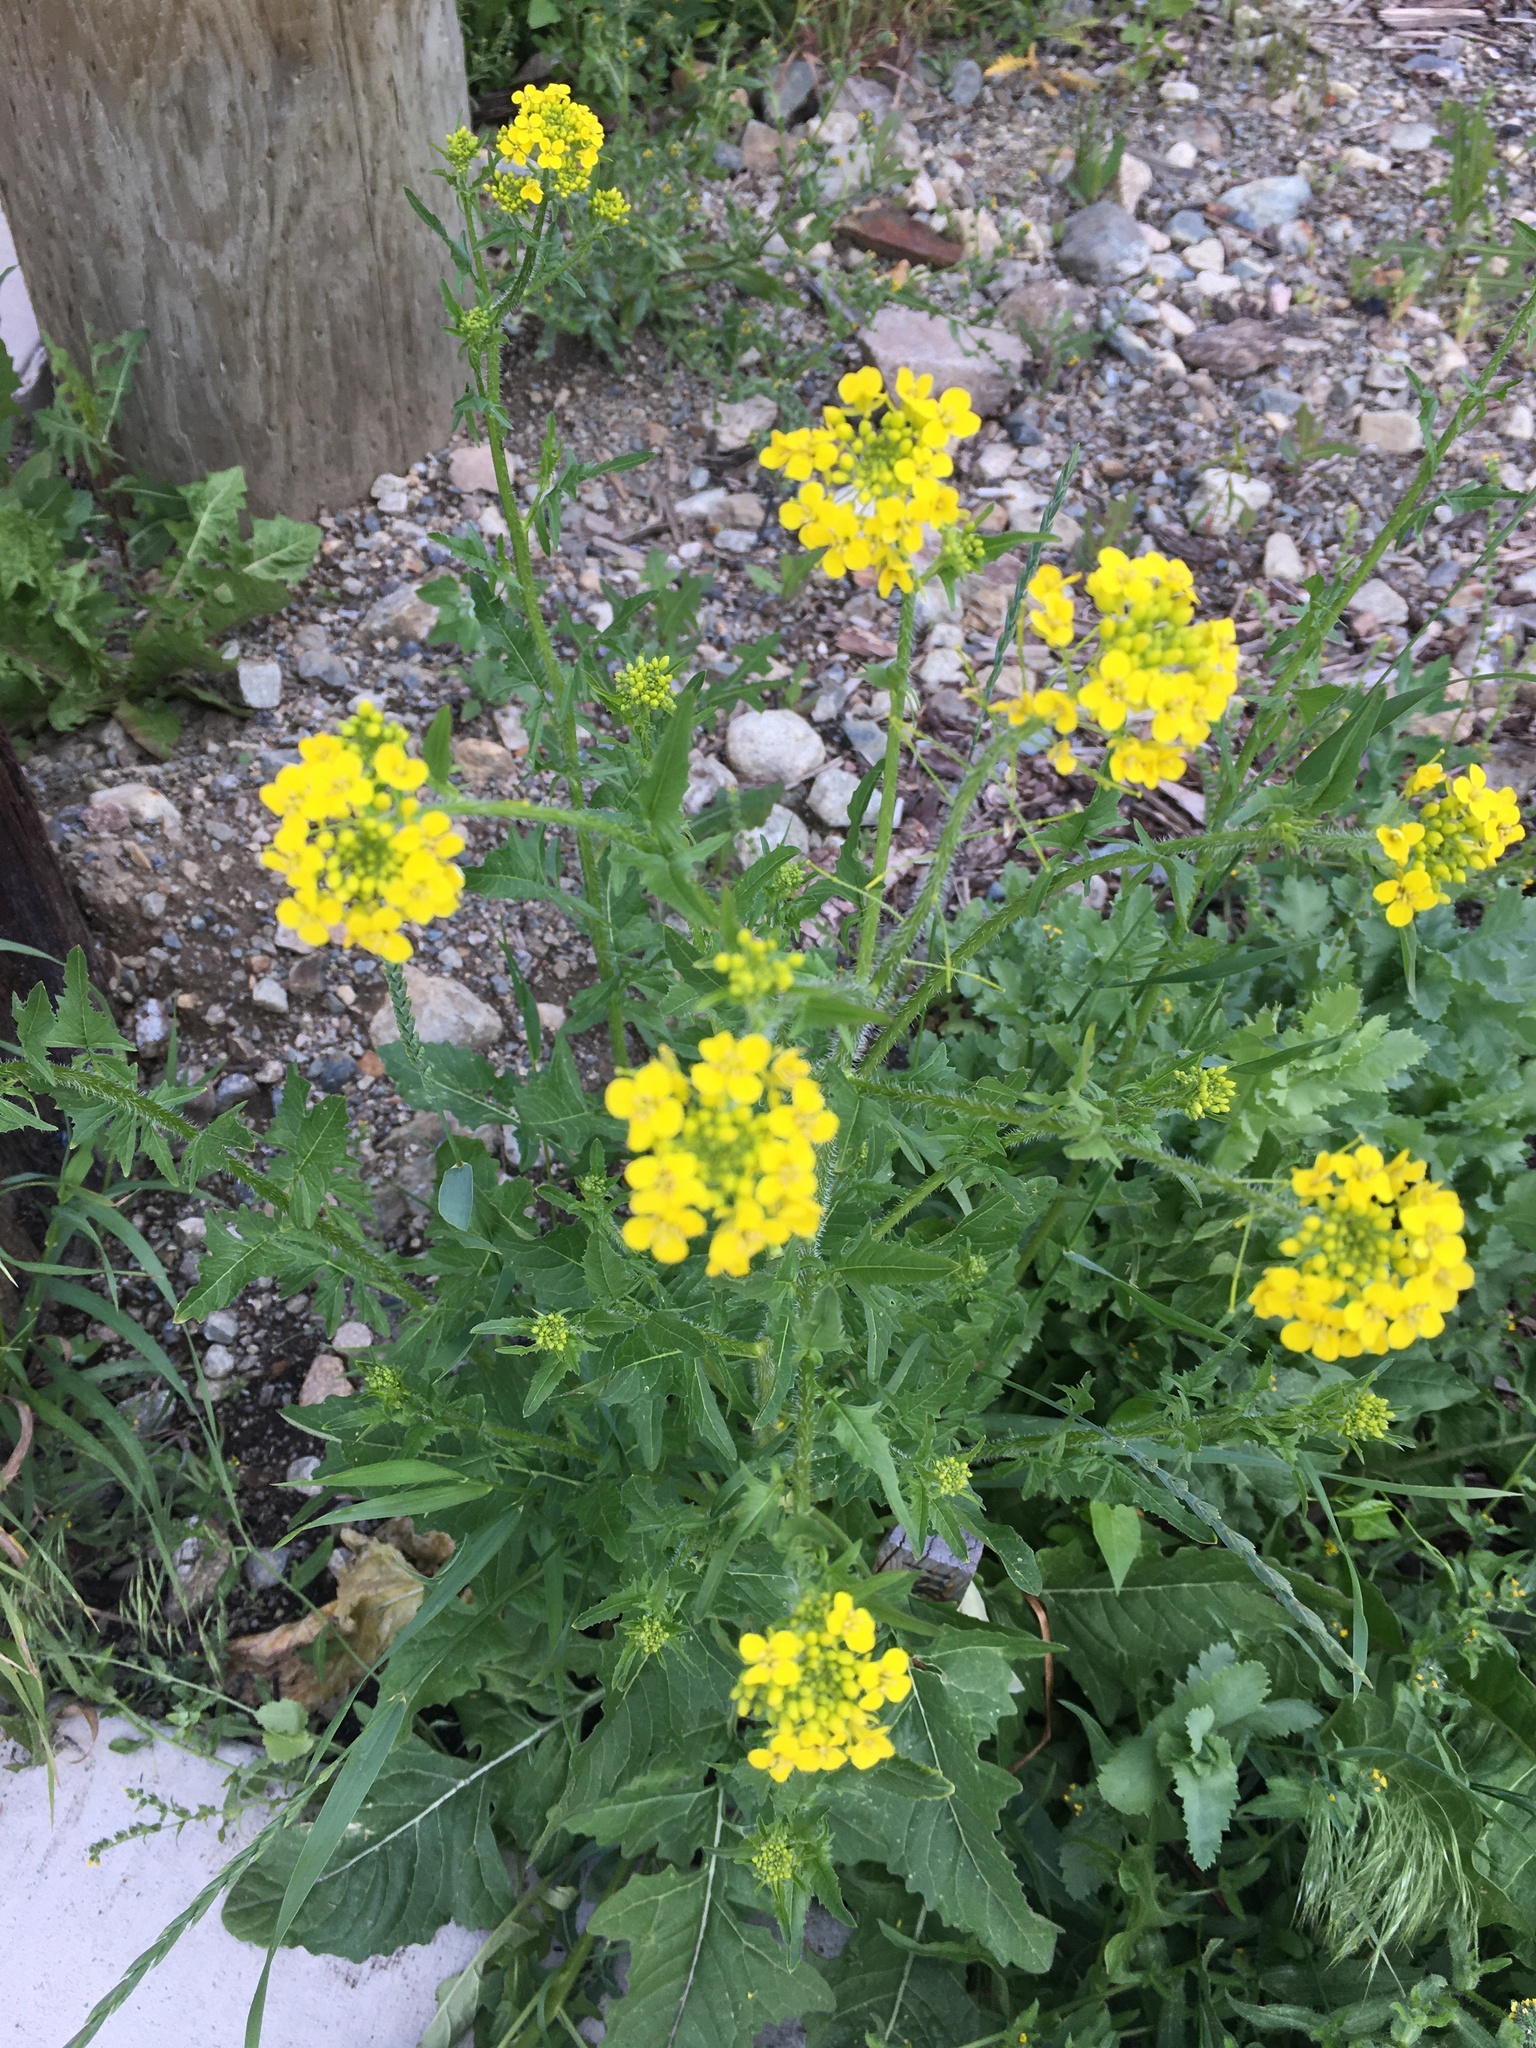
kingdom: Plantae
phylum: Tracheophyta
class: Magnoliopsida
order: Brassicales
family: Brassicaceae
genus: Sisymbrium
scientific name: Sisymbrium loeselii
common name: False london-rocket
